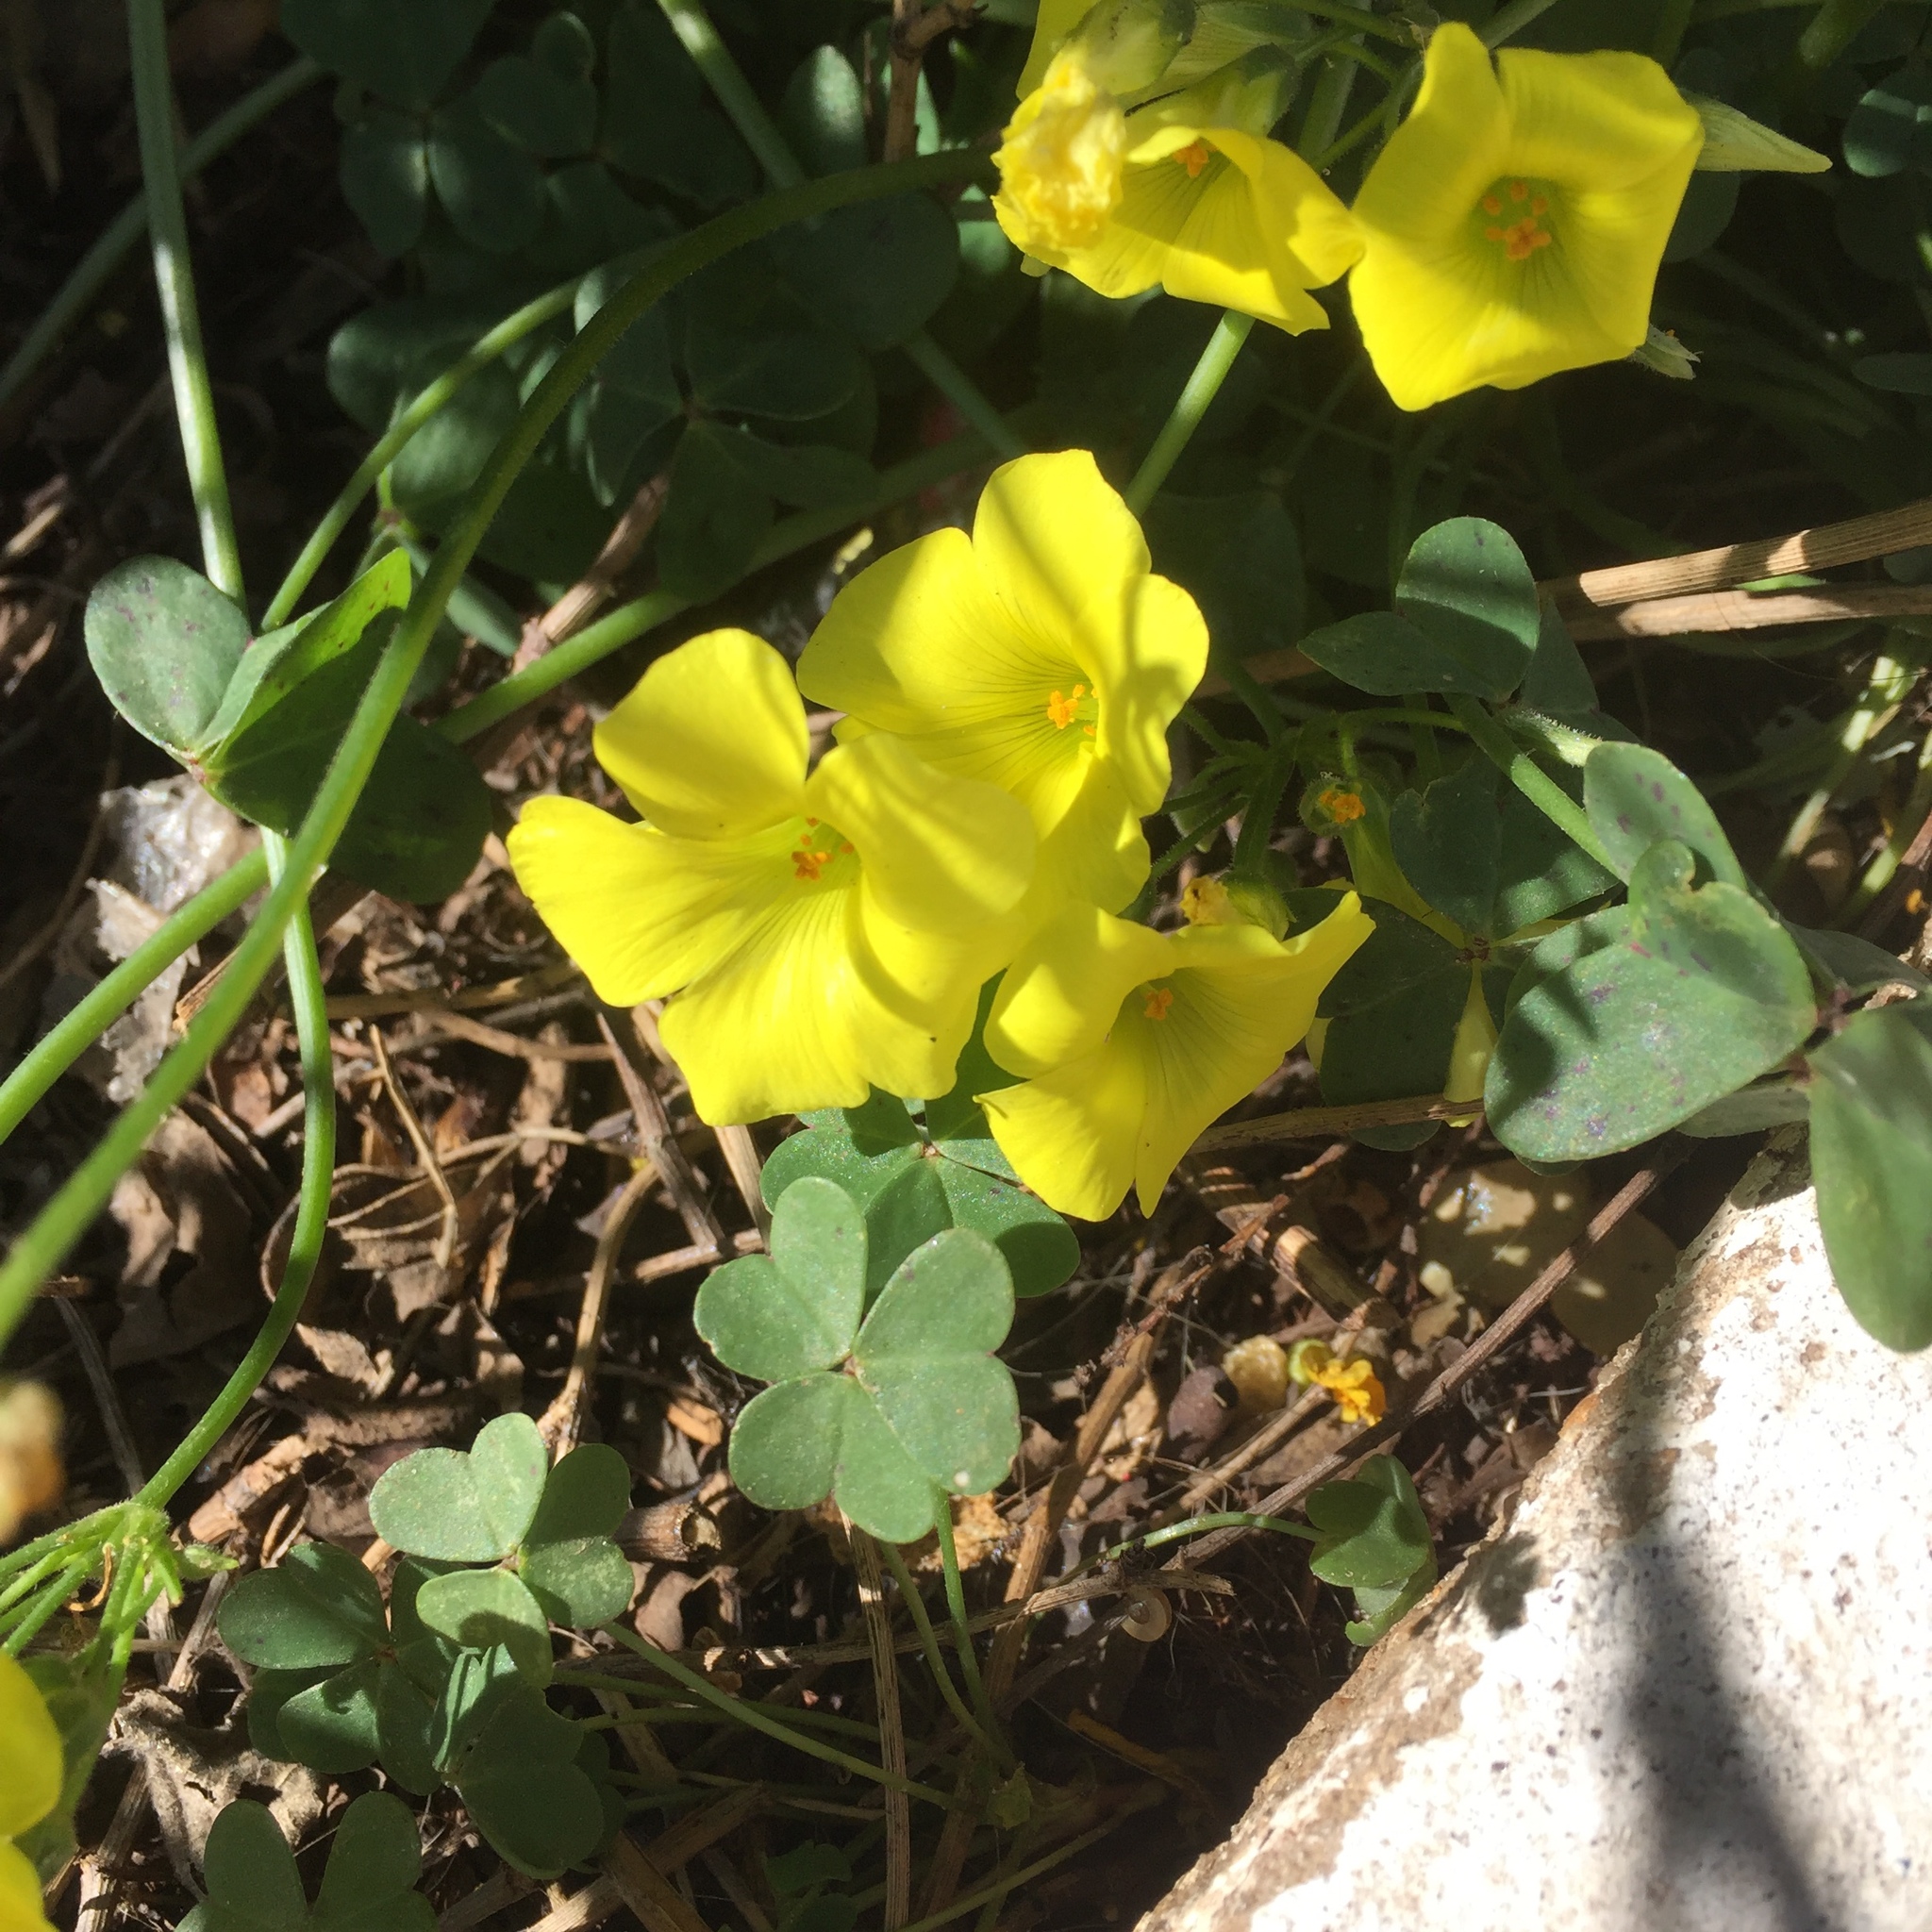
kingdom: Plantae
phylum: Tracheophyta
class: Magnoliopsida
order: Oxalidales
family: Oxalidaceae
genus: Oxalis
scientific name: Oxalis pes-caprae
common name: Bermuda-buttercup
